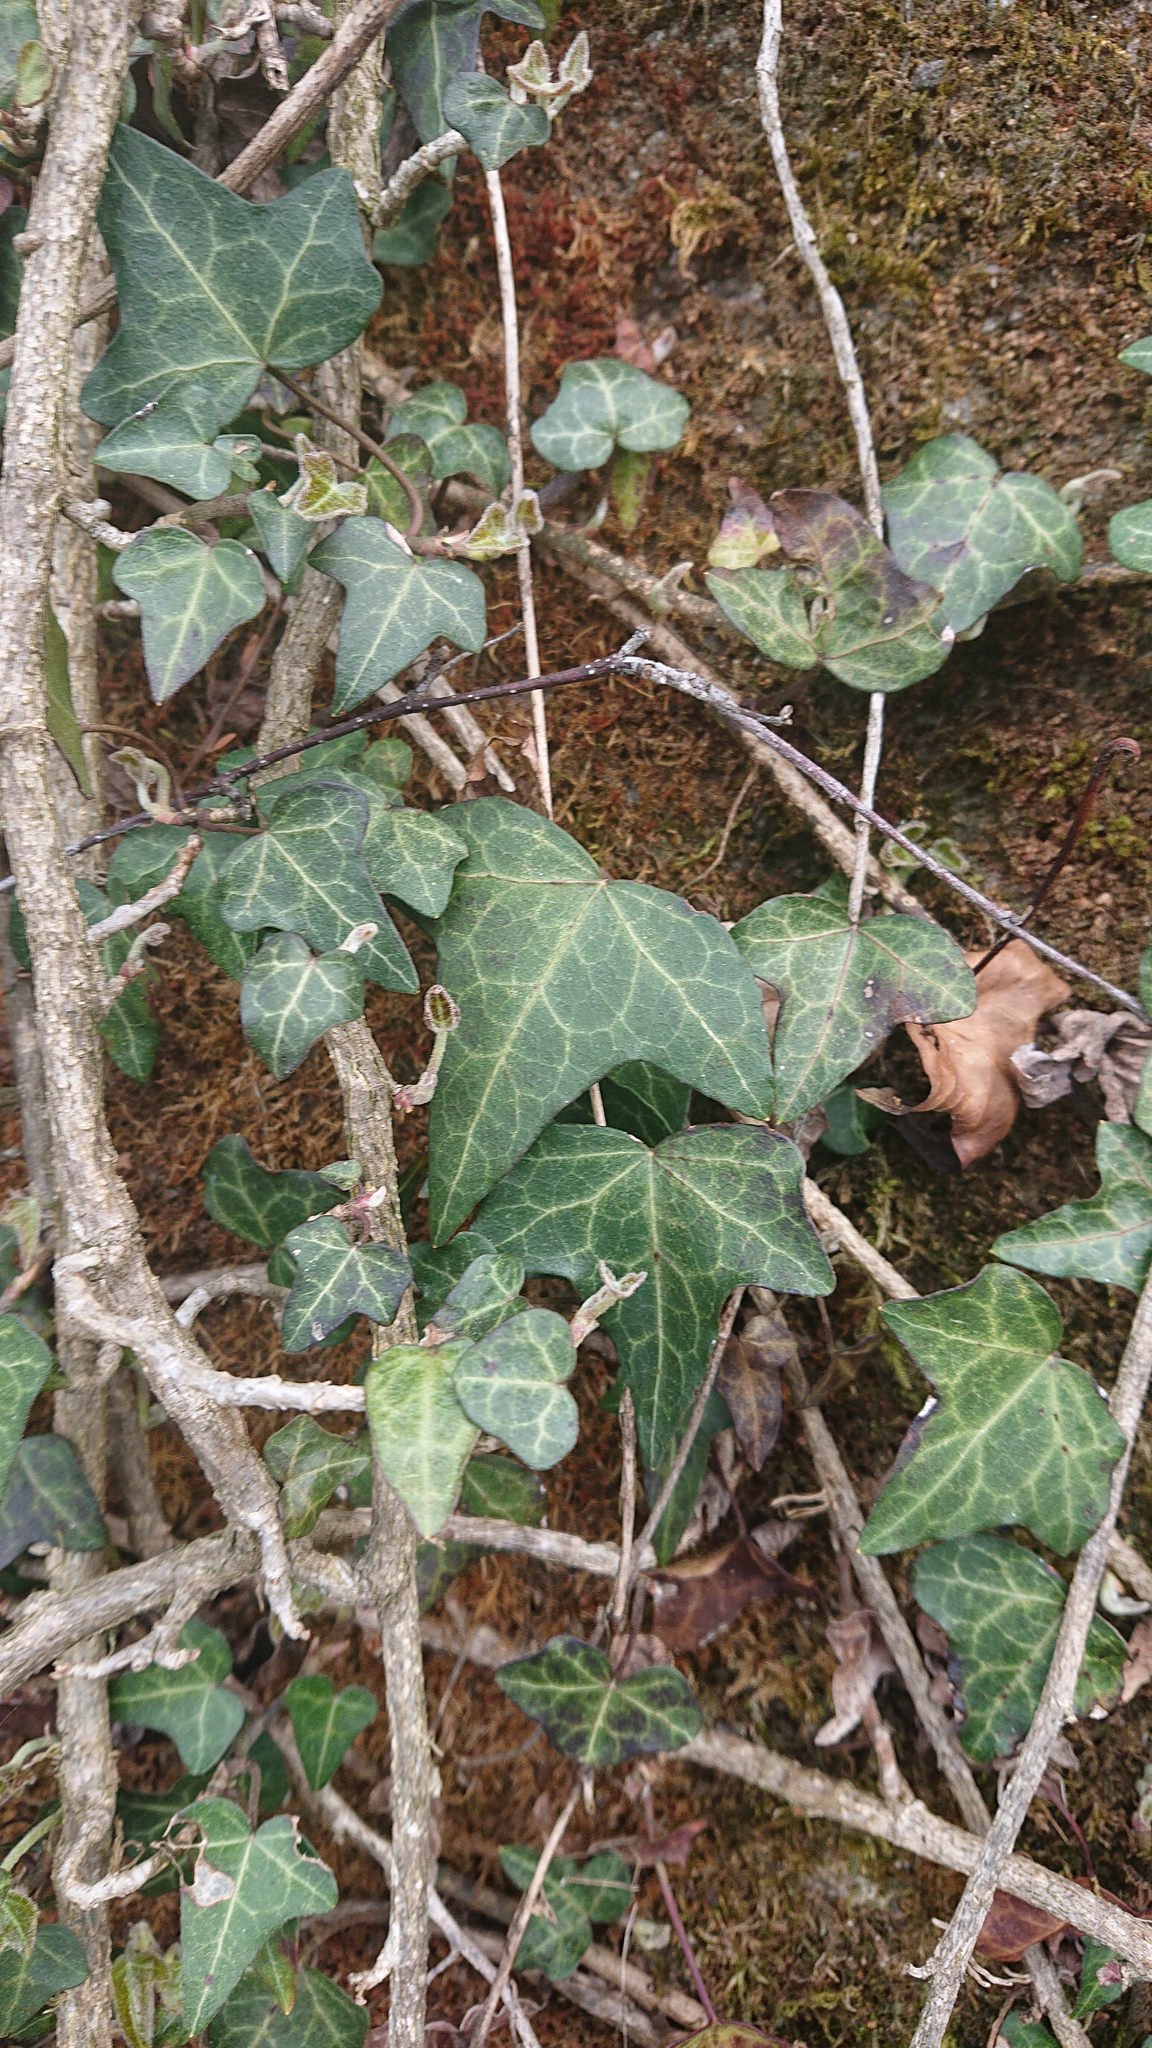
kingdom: Plantae
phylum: Tracheophyta
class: Magnoliopsida
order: Apiales
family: Araliaceae
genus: Hedera
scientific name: Hedera helix
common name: Ivy
